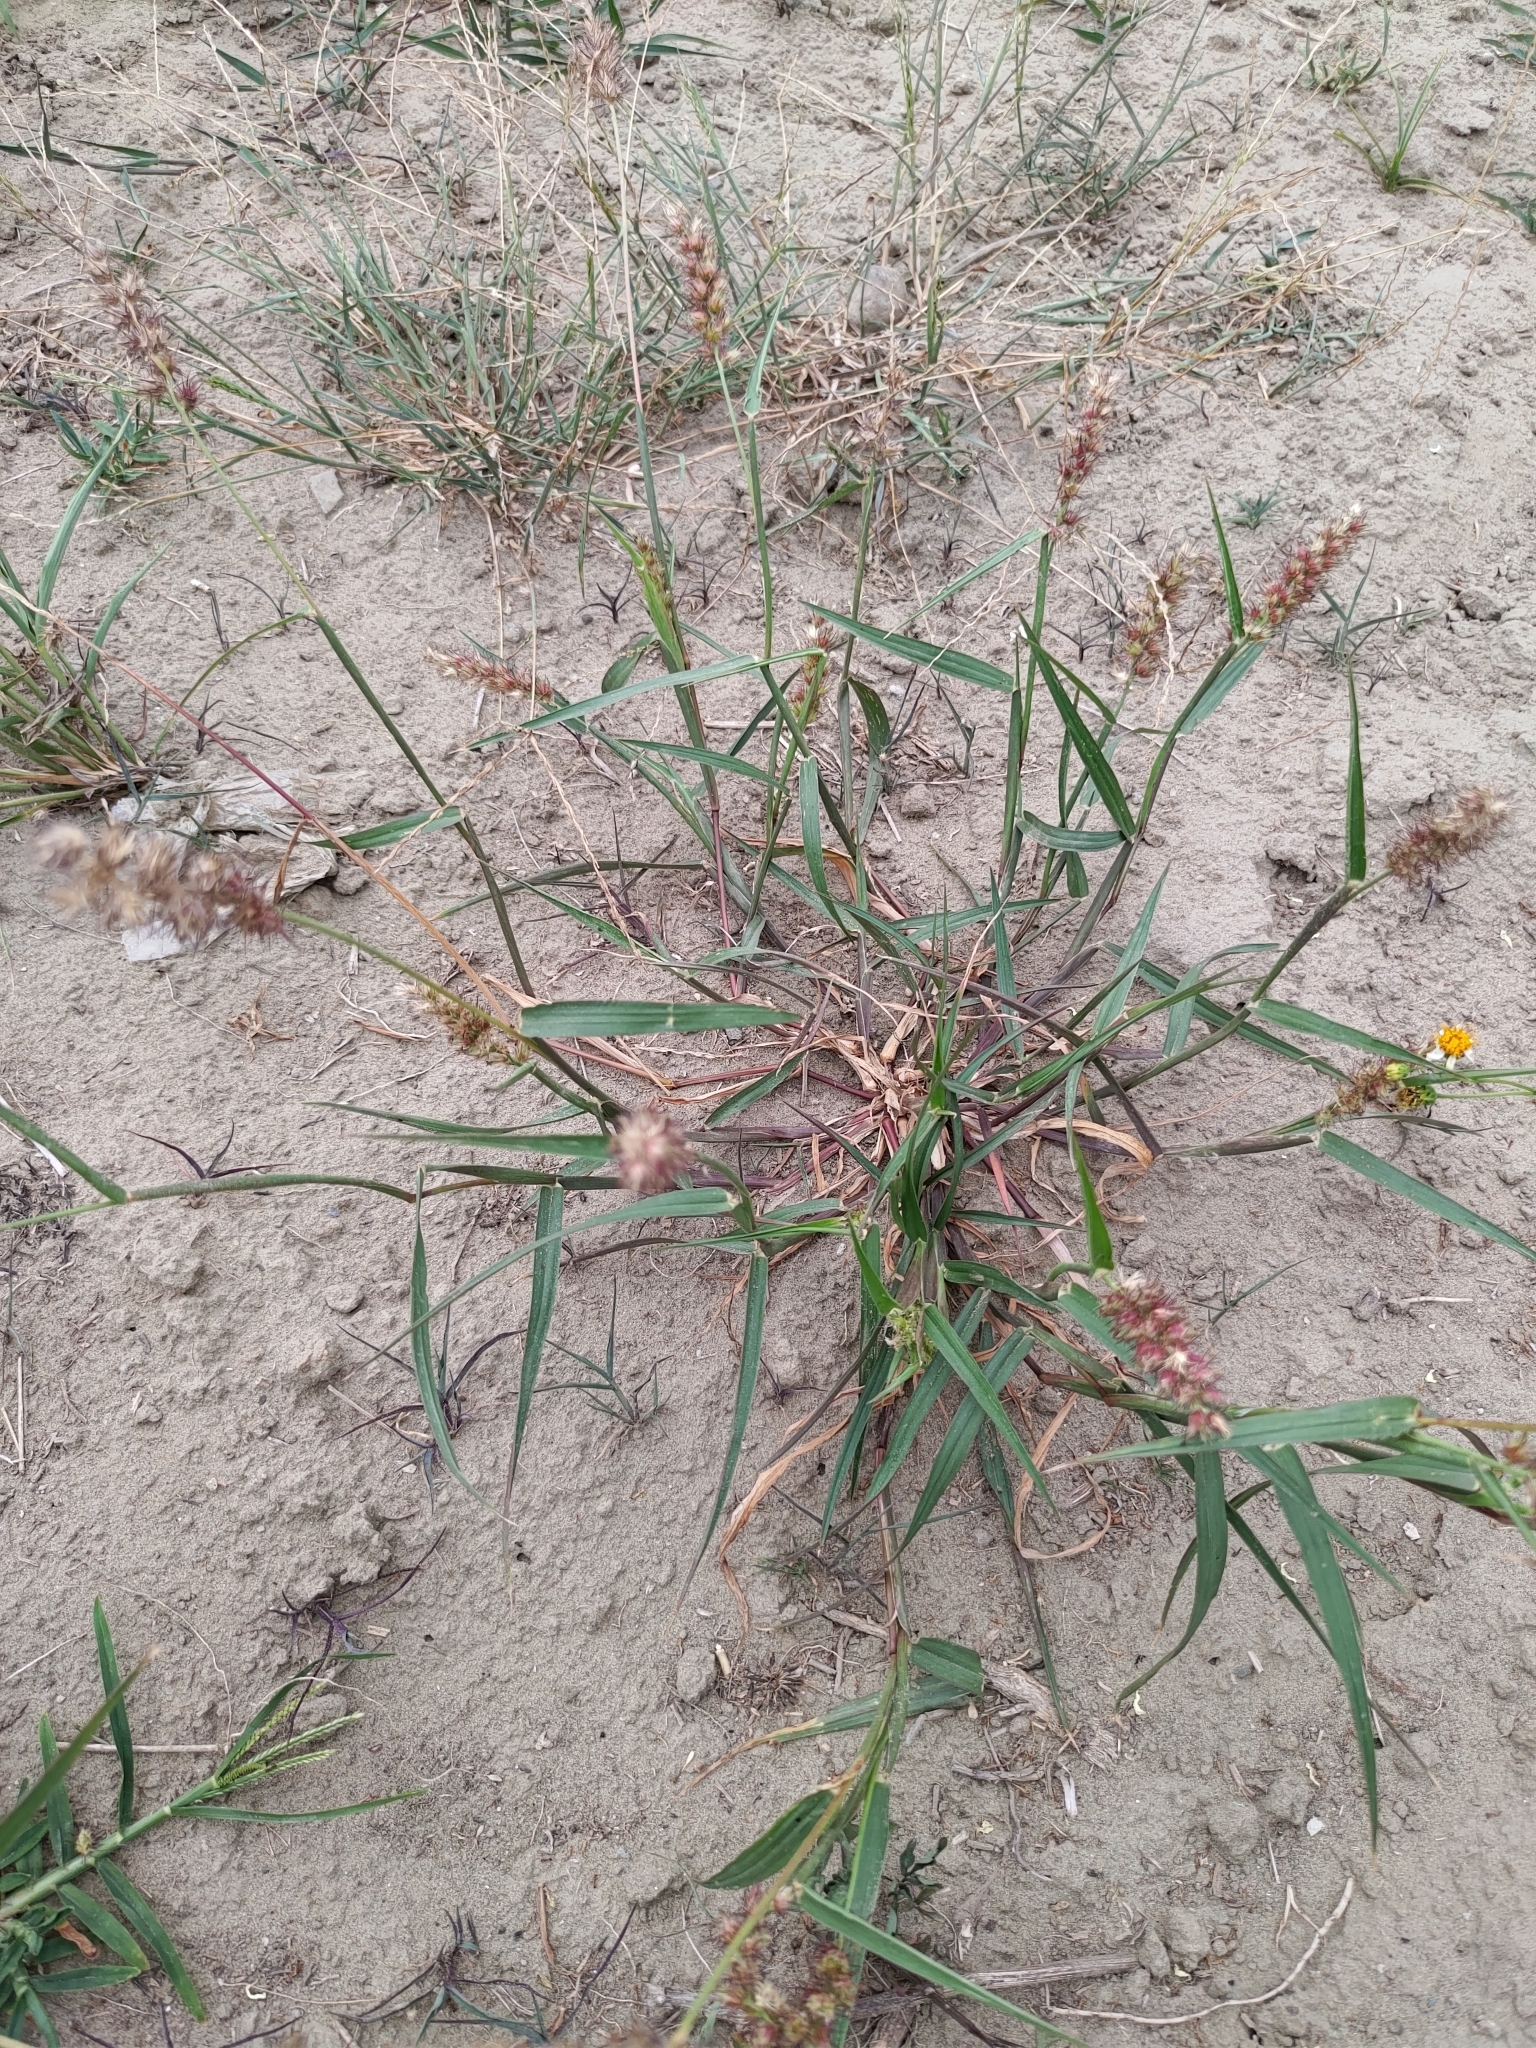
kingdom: Plantae
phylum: Tracheophyta
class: Liliopsida
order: Poales
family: Poaceae
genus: Cenchrus
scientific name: Cenchrus echinatus
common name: Southern sandbur
